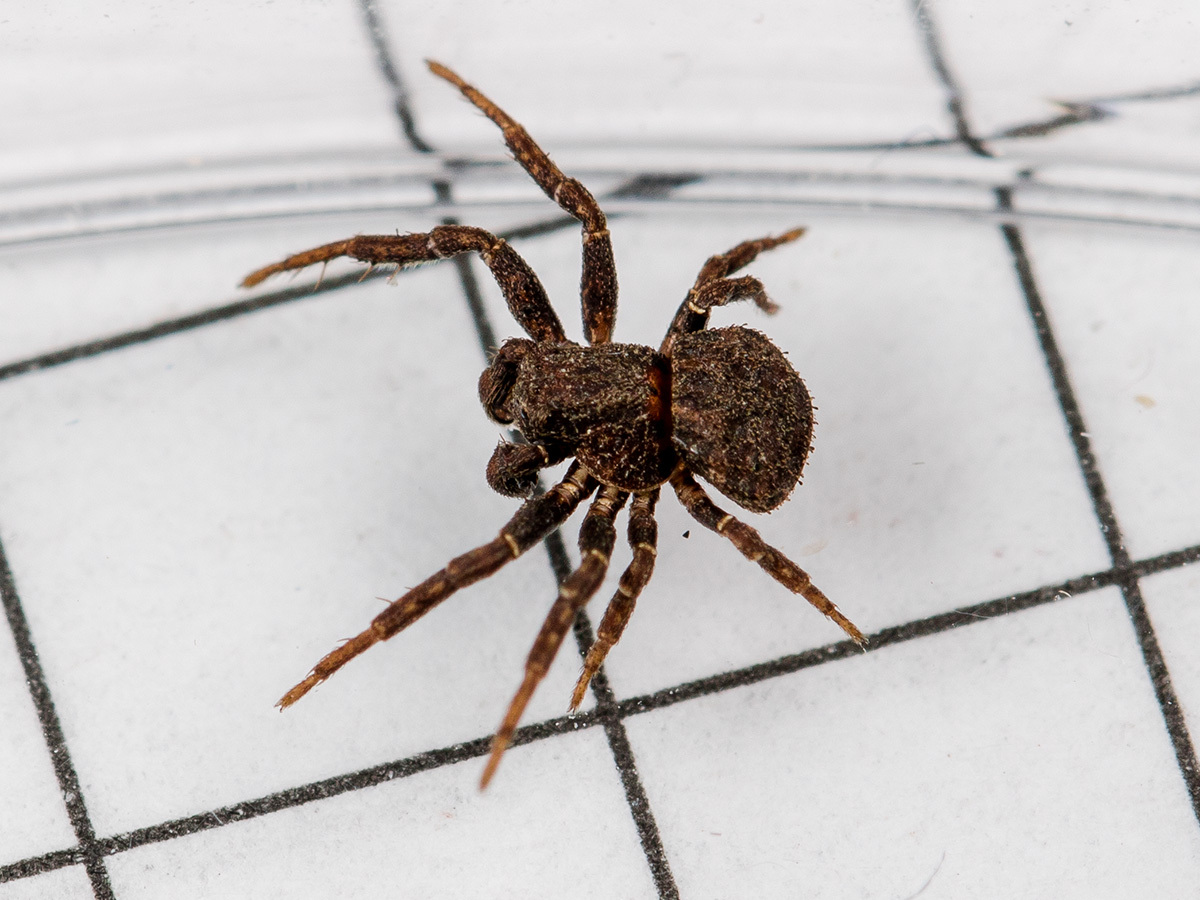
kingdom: Animalia
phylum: Arthropoda
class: Arachnida
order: Araneae
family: Thomisidae
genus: Ozyptila
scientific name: Ozyptila scabricula
